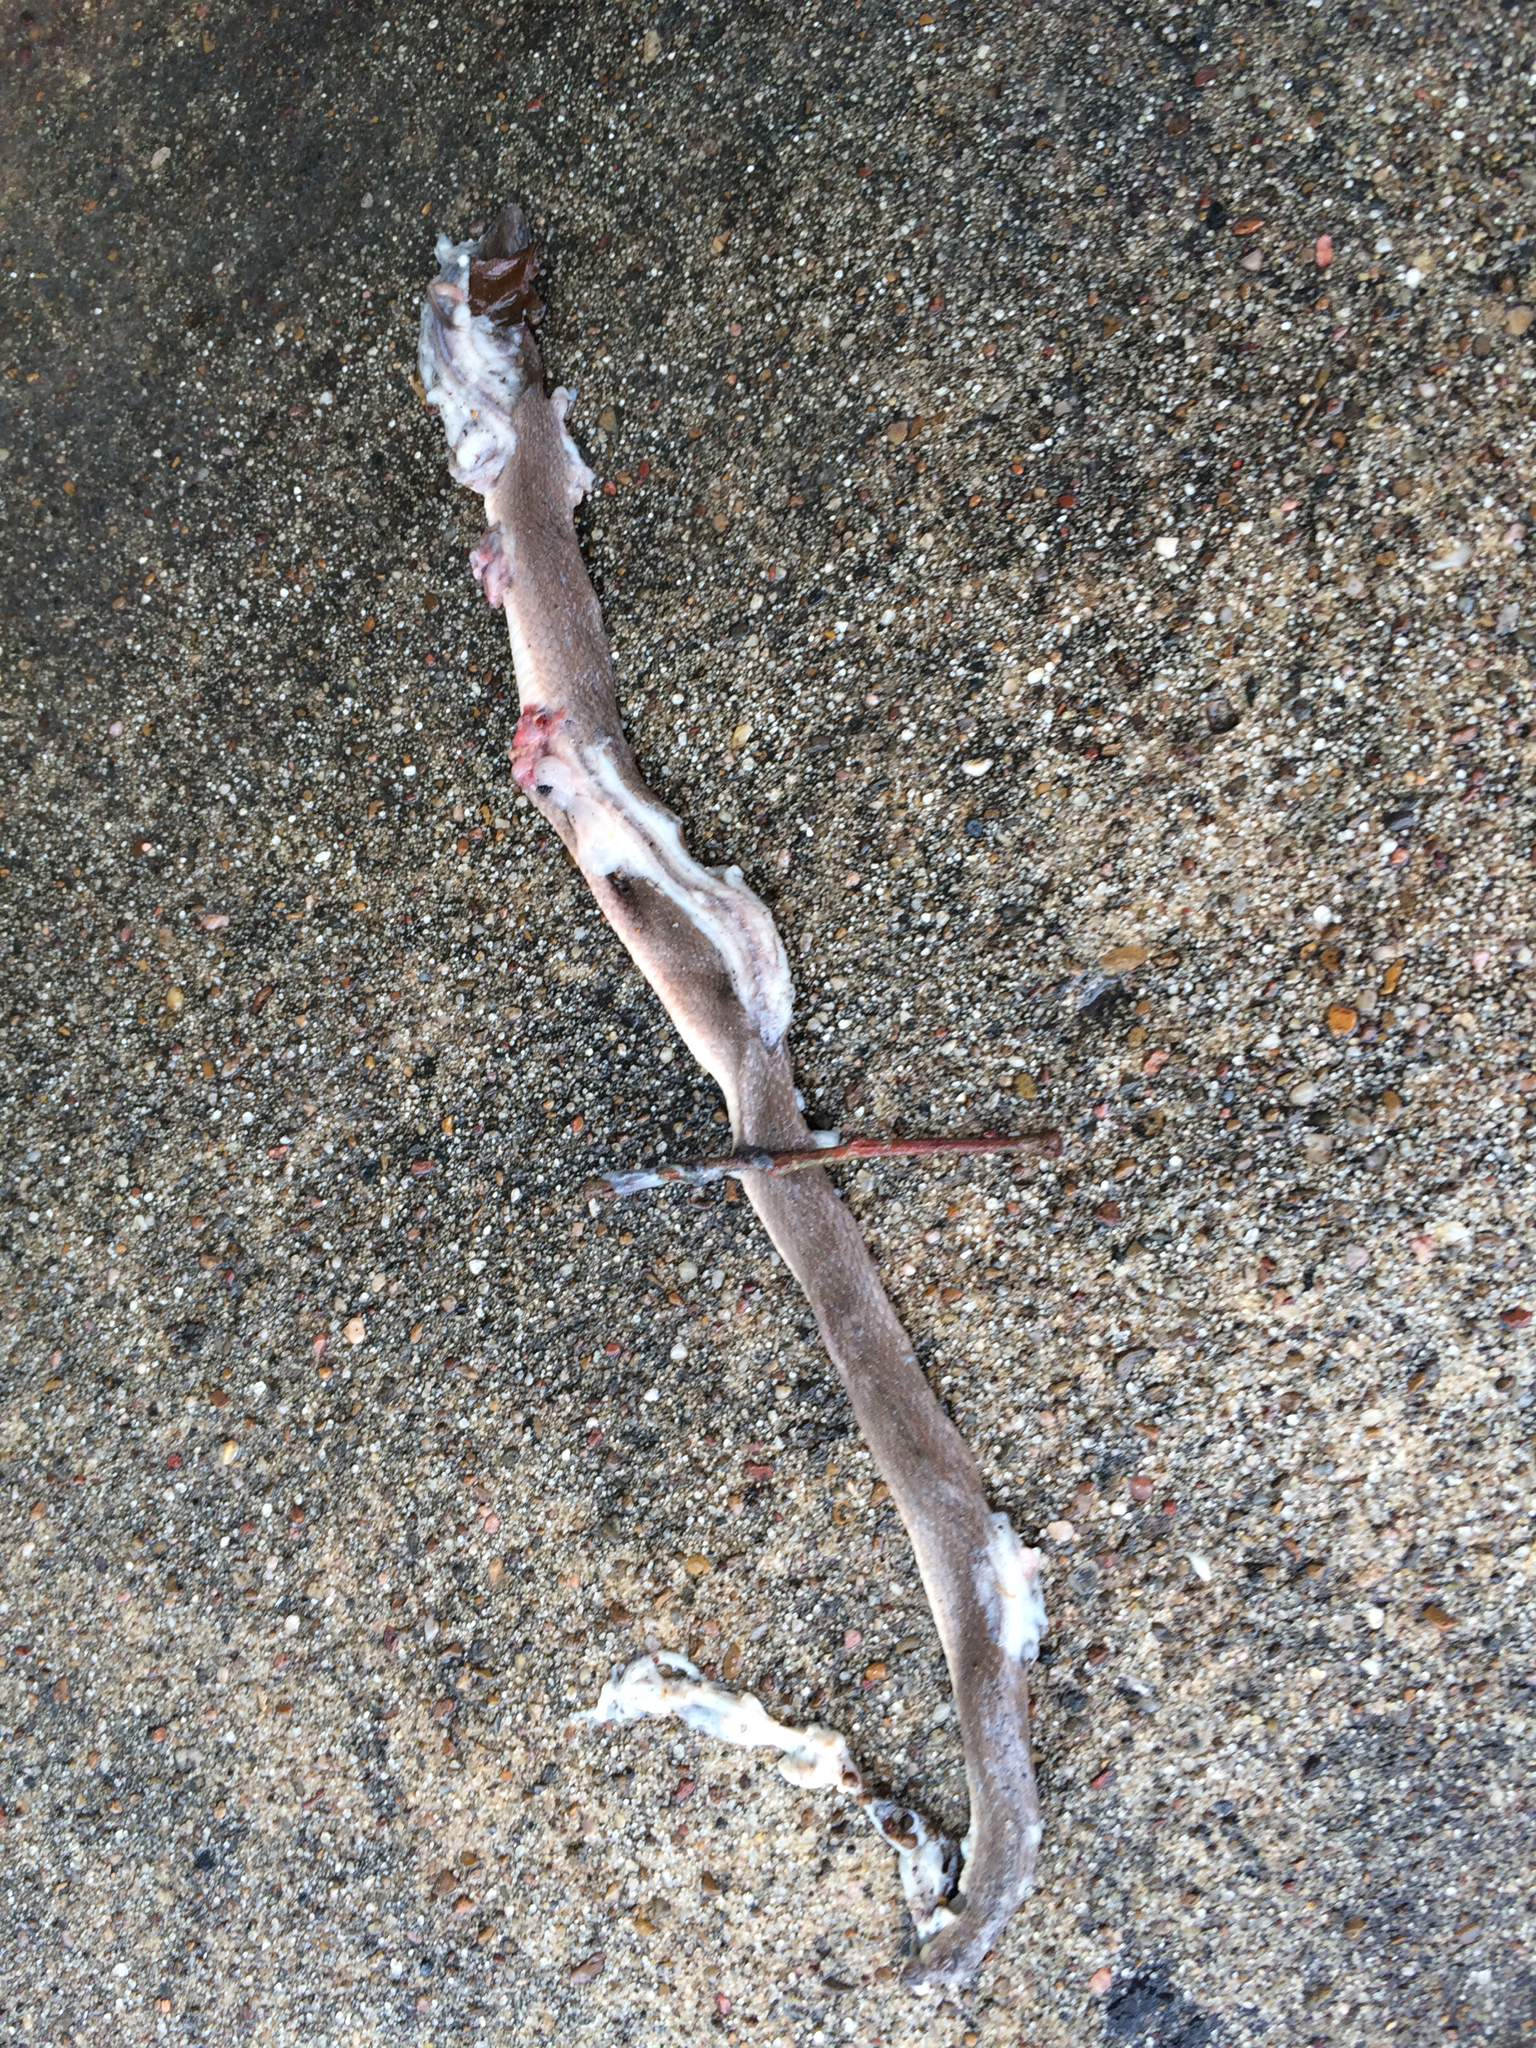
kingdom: Animalia
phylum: Chordata
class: Squamata
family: Colubridae
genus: Haldea
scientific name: Haldea striatula
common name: Rough earth snake
